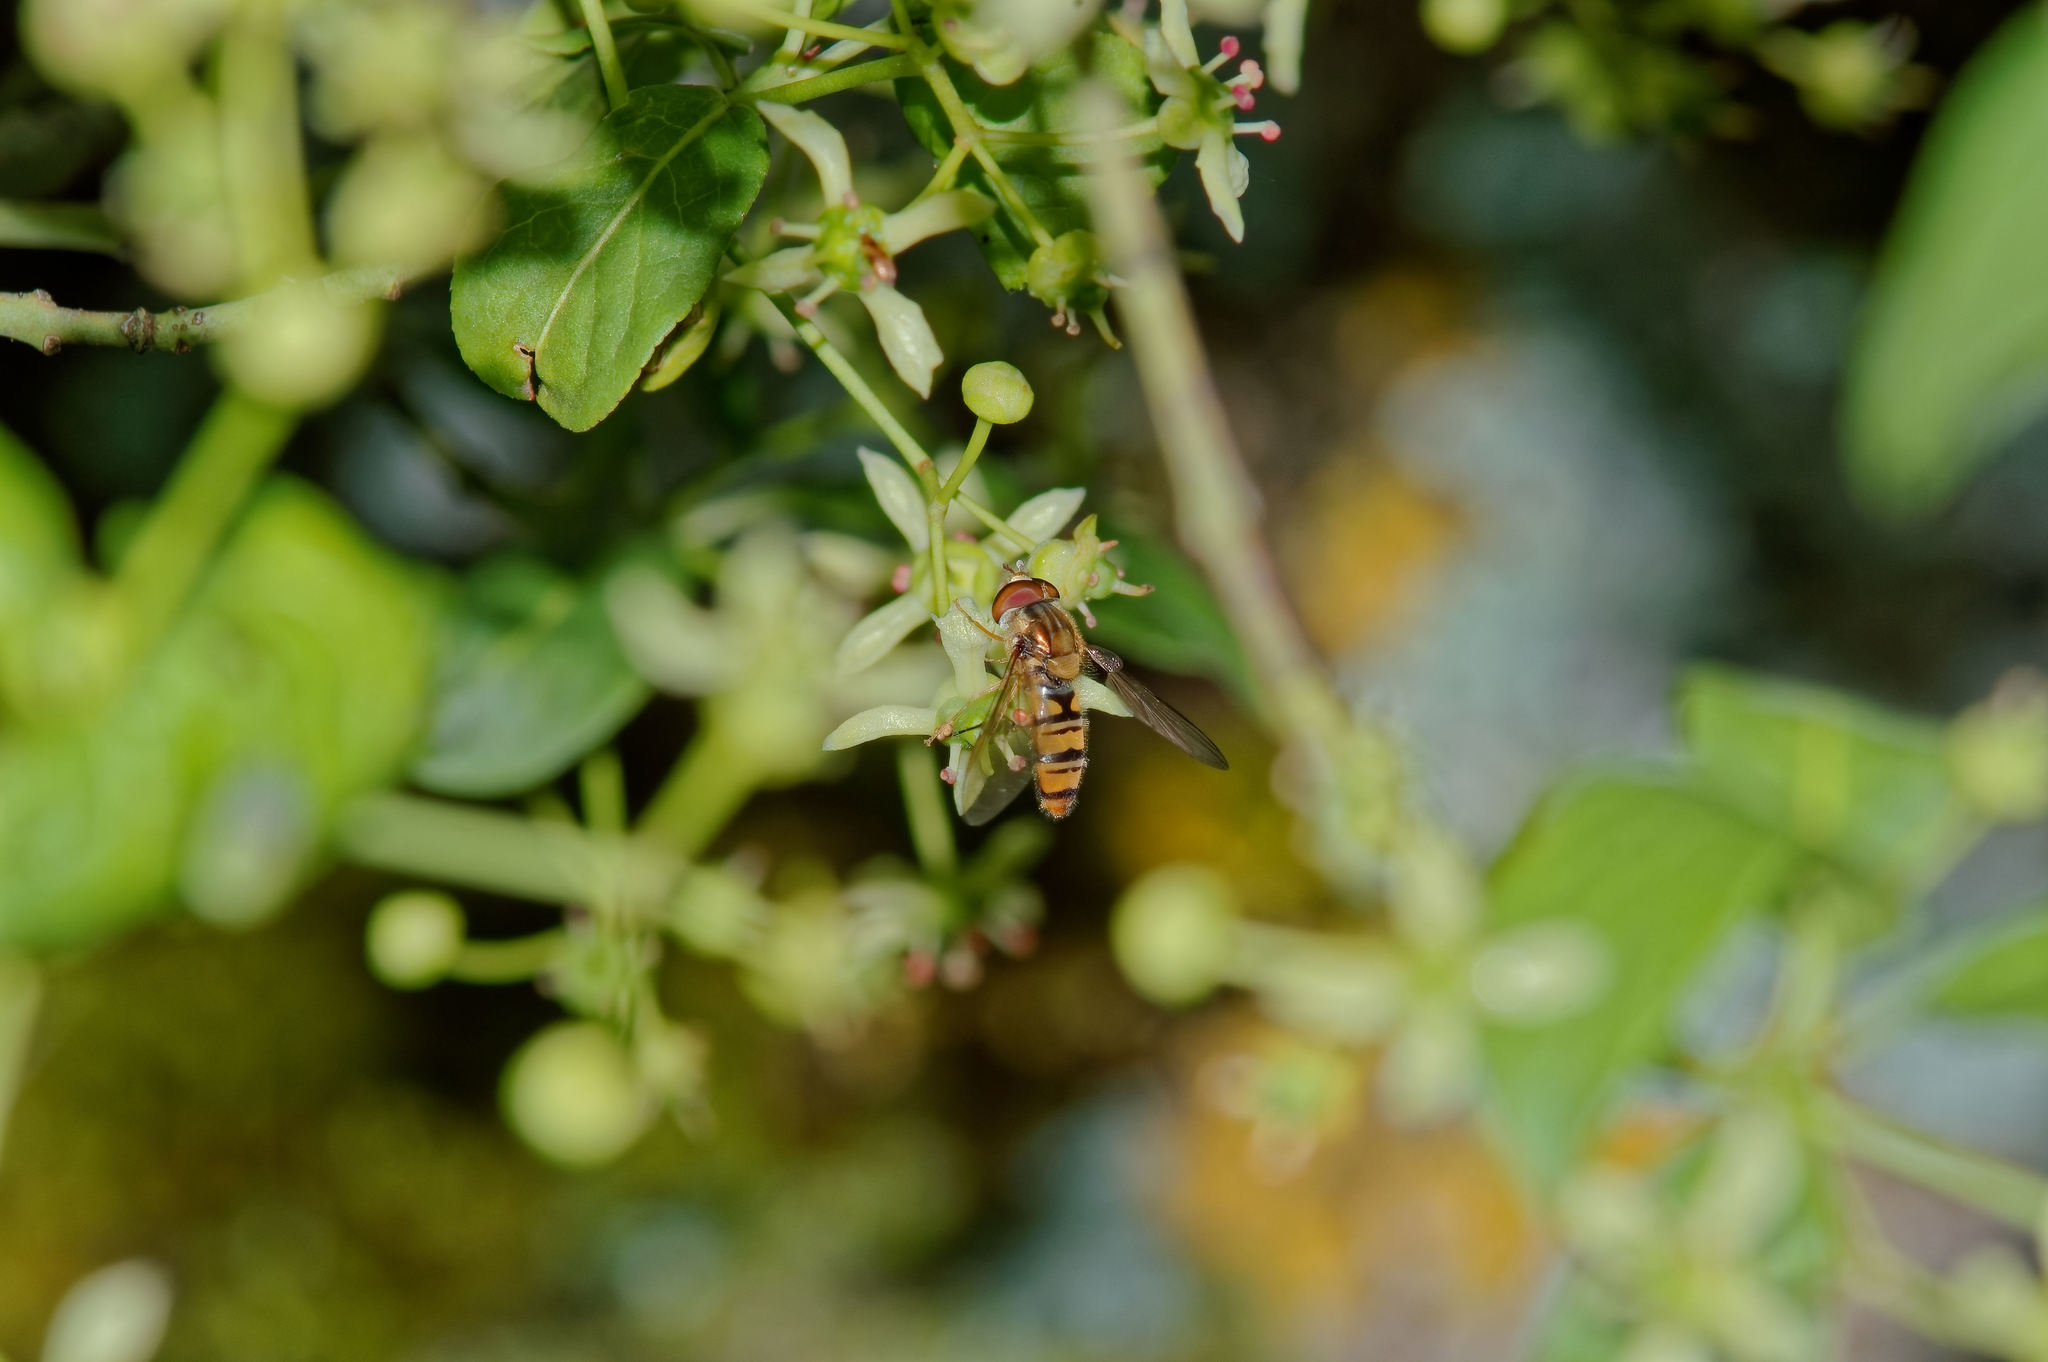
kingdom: Animalia
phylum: Arthropoda
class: Insecta
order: Diptera
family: Syrphidae
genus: Episyrphus
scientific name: Episyrphus balteatus
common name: Marmalade hoverfly
